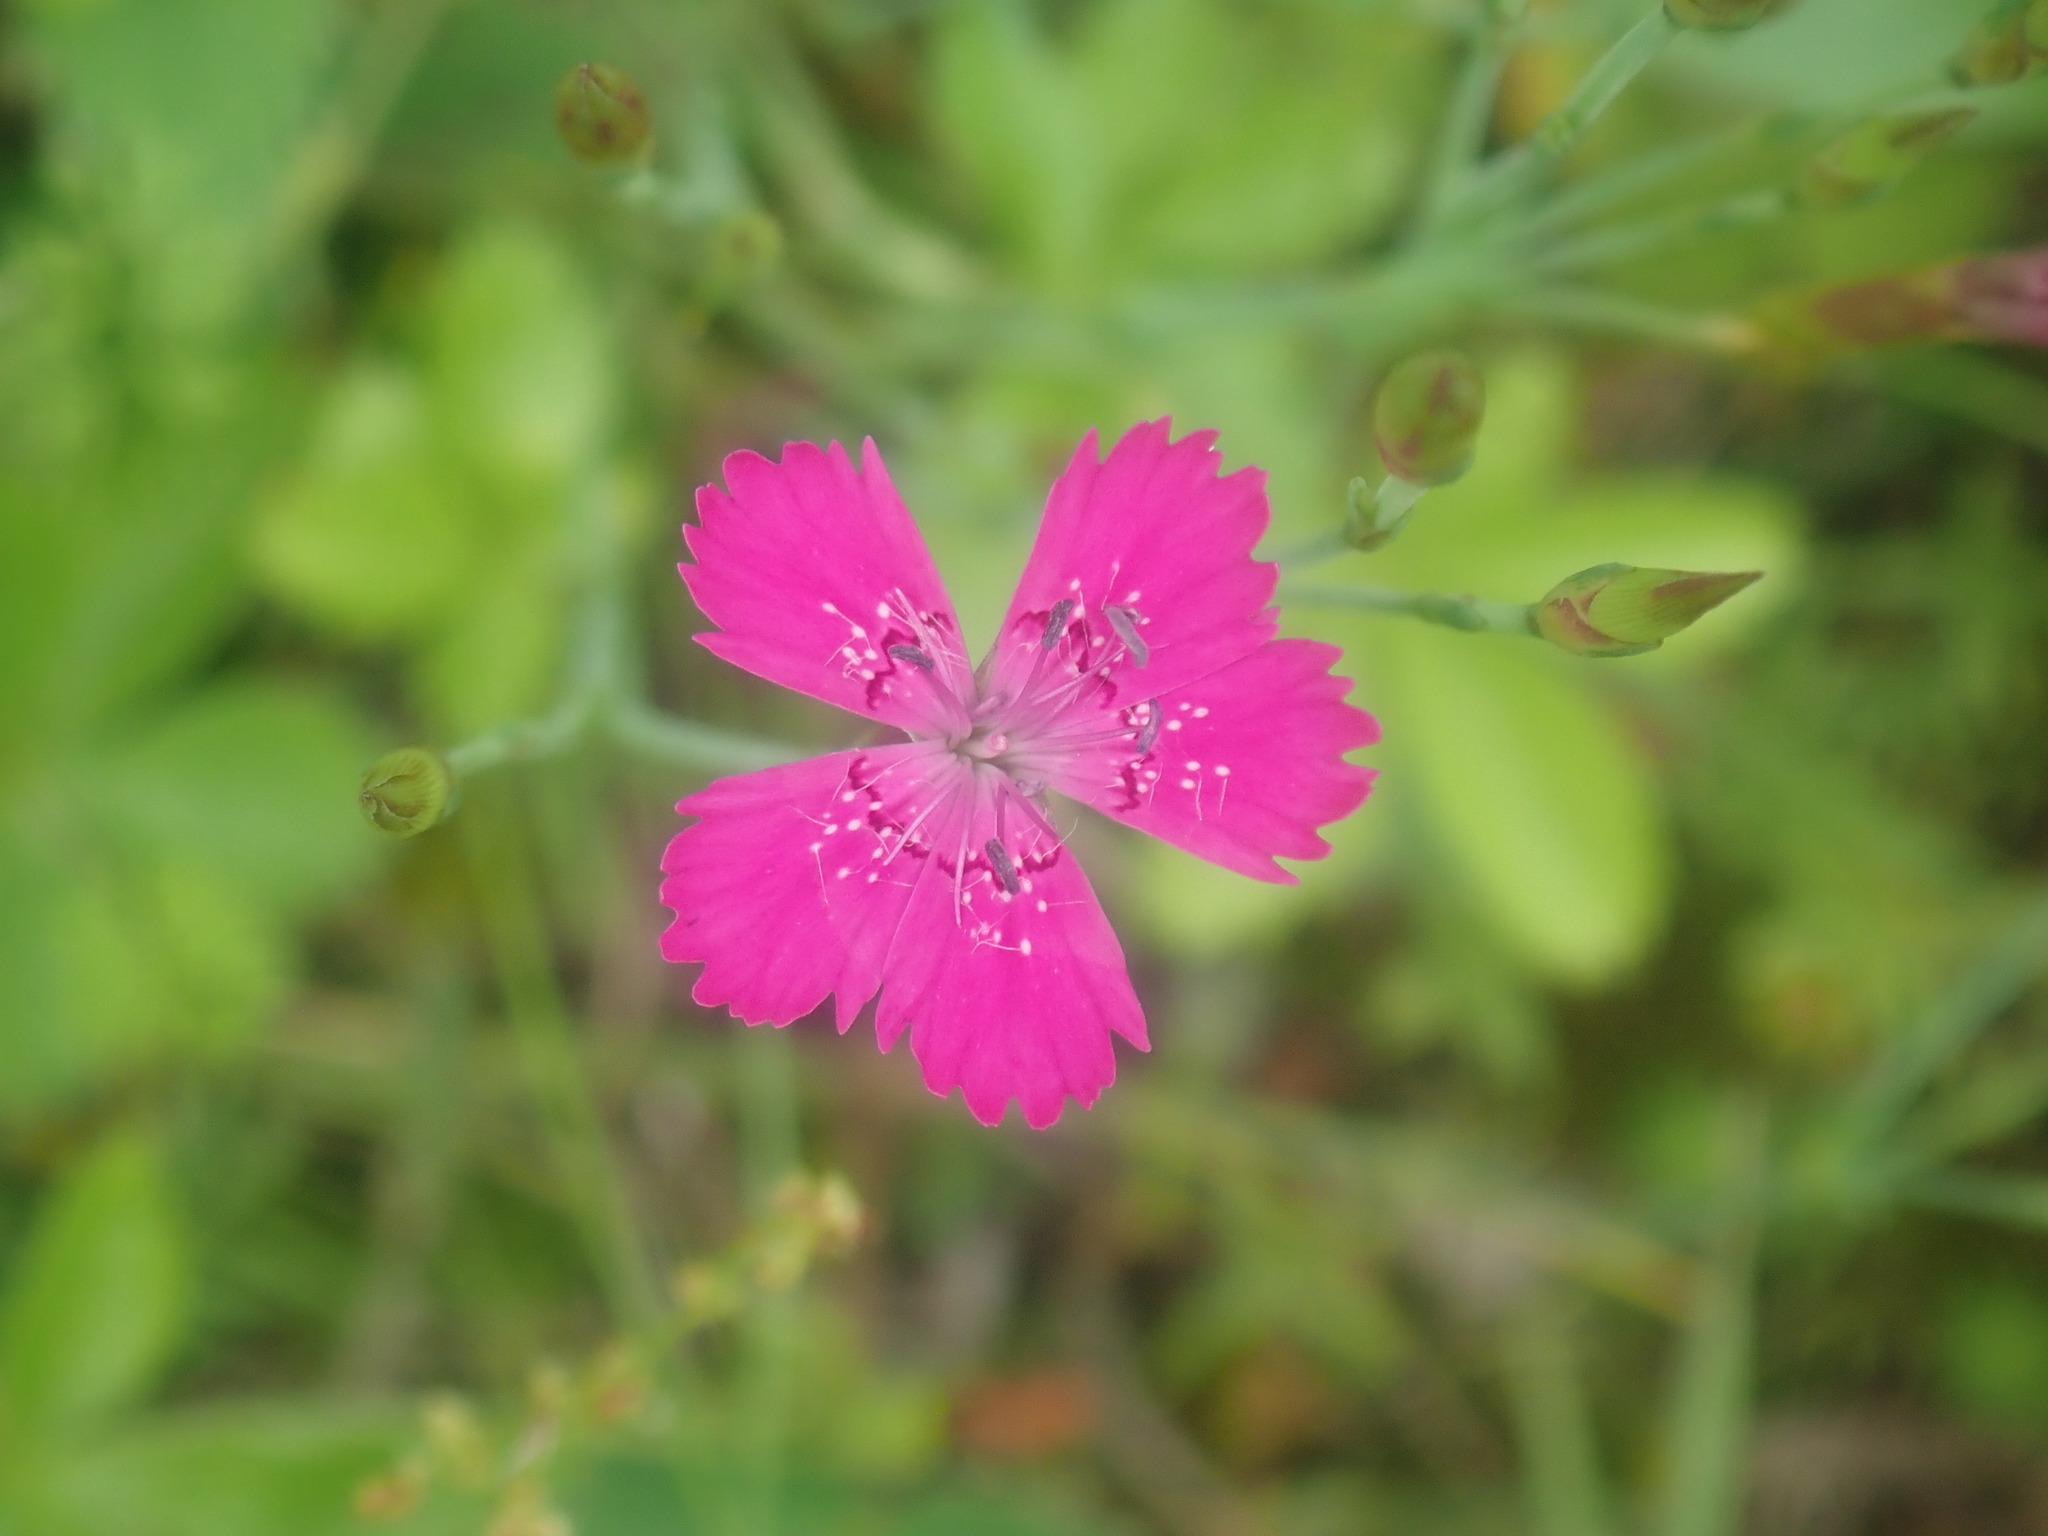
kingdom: Plantae
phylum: Tracheophyta
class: Magnoliopsida
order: Caryophyllales
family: Caryophyllaceae
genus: Dianthus
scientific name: Dianthus deltoides
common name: Maiden pink
